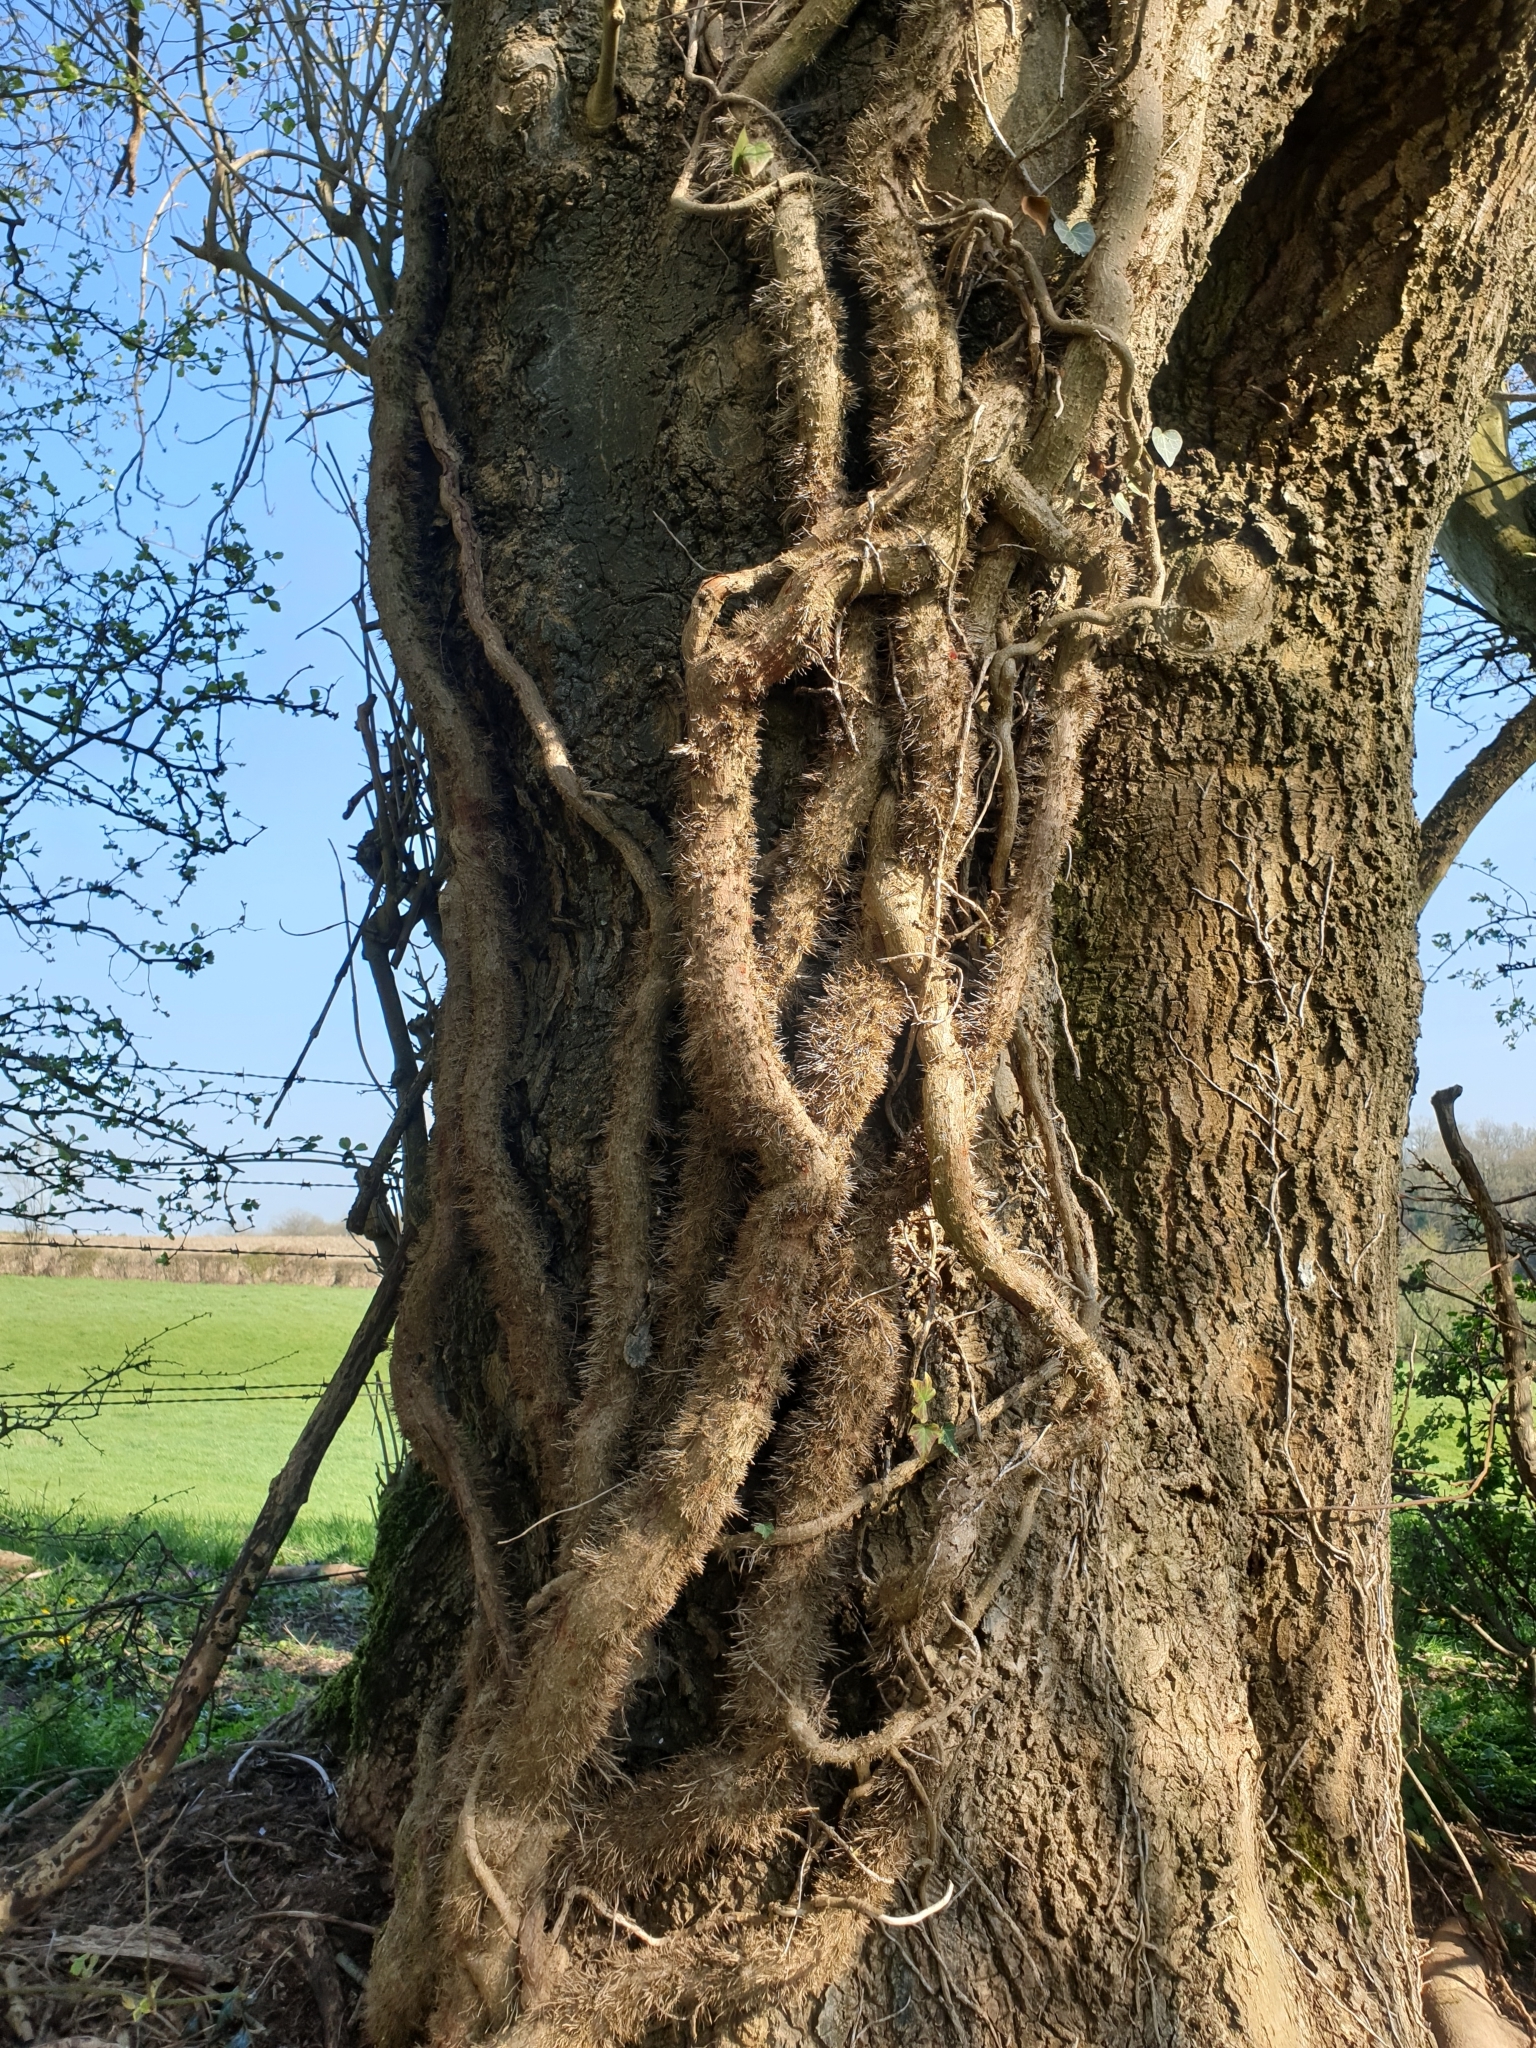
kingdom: Plantae
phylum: Tracheophyta
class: Magnoliopsida
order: Apiales
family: Araliaceae
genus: Hedera
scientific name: Hedera helix
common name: Ivy
